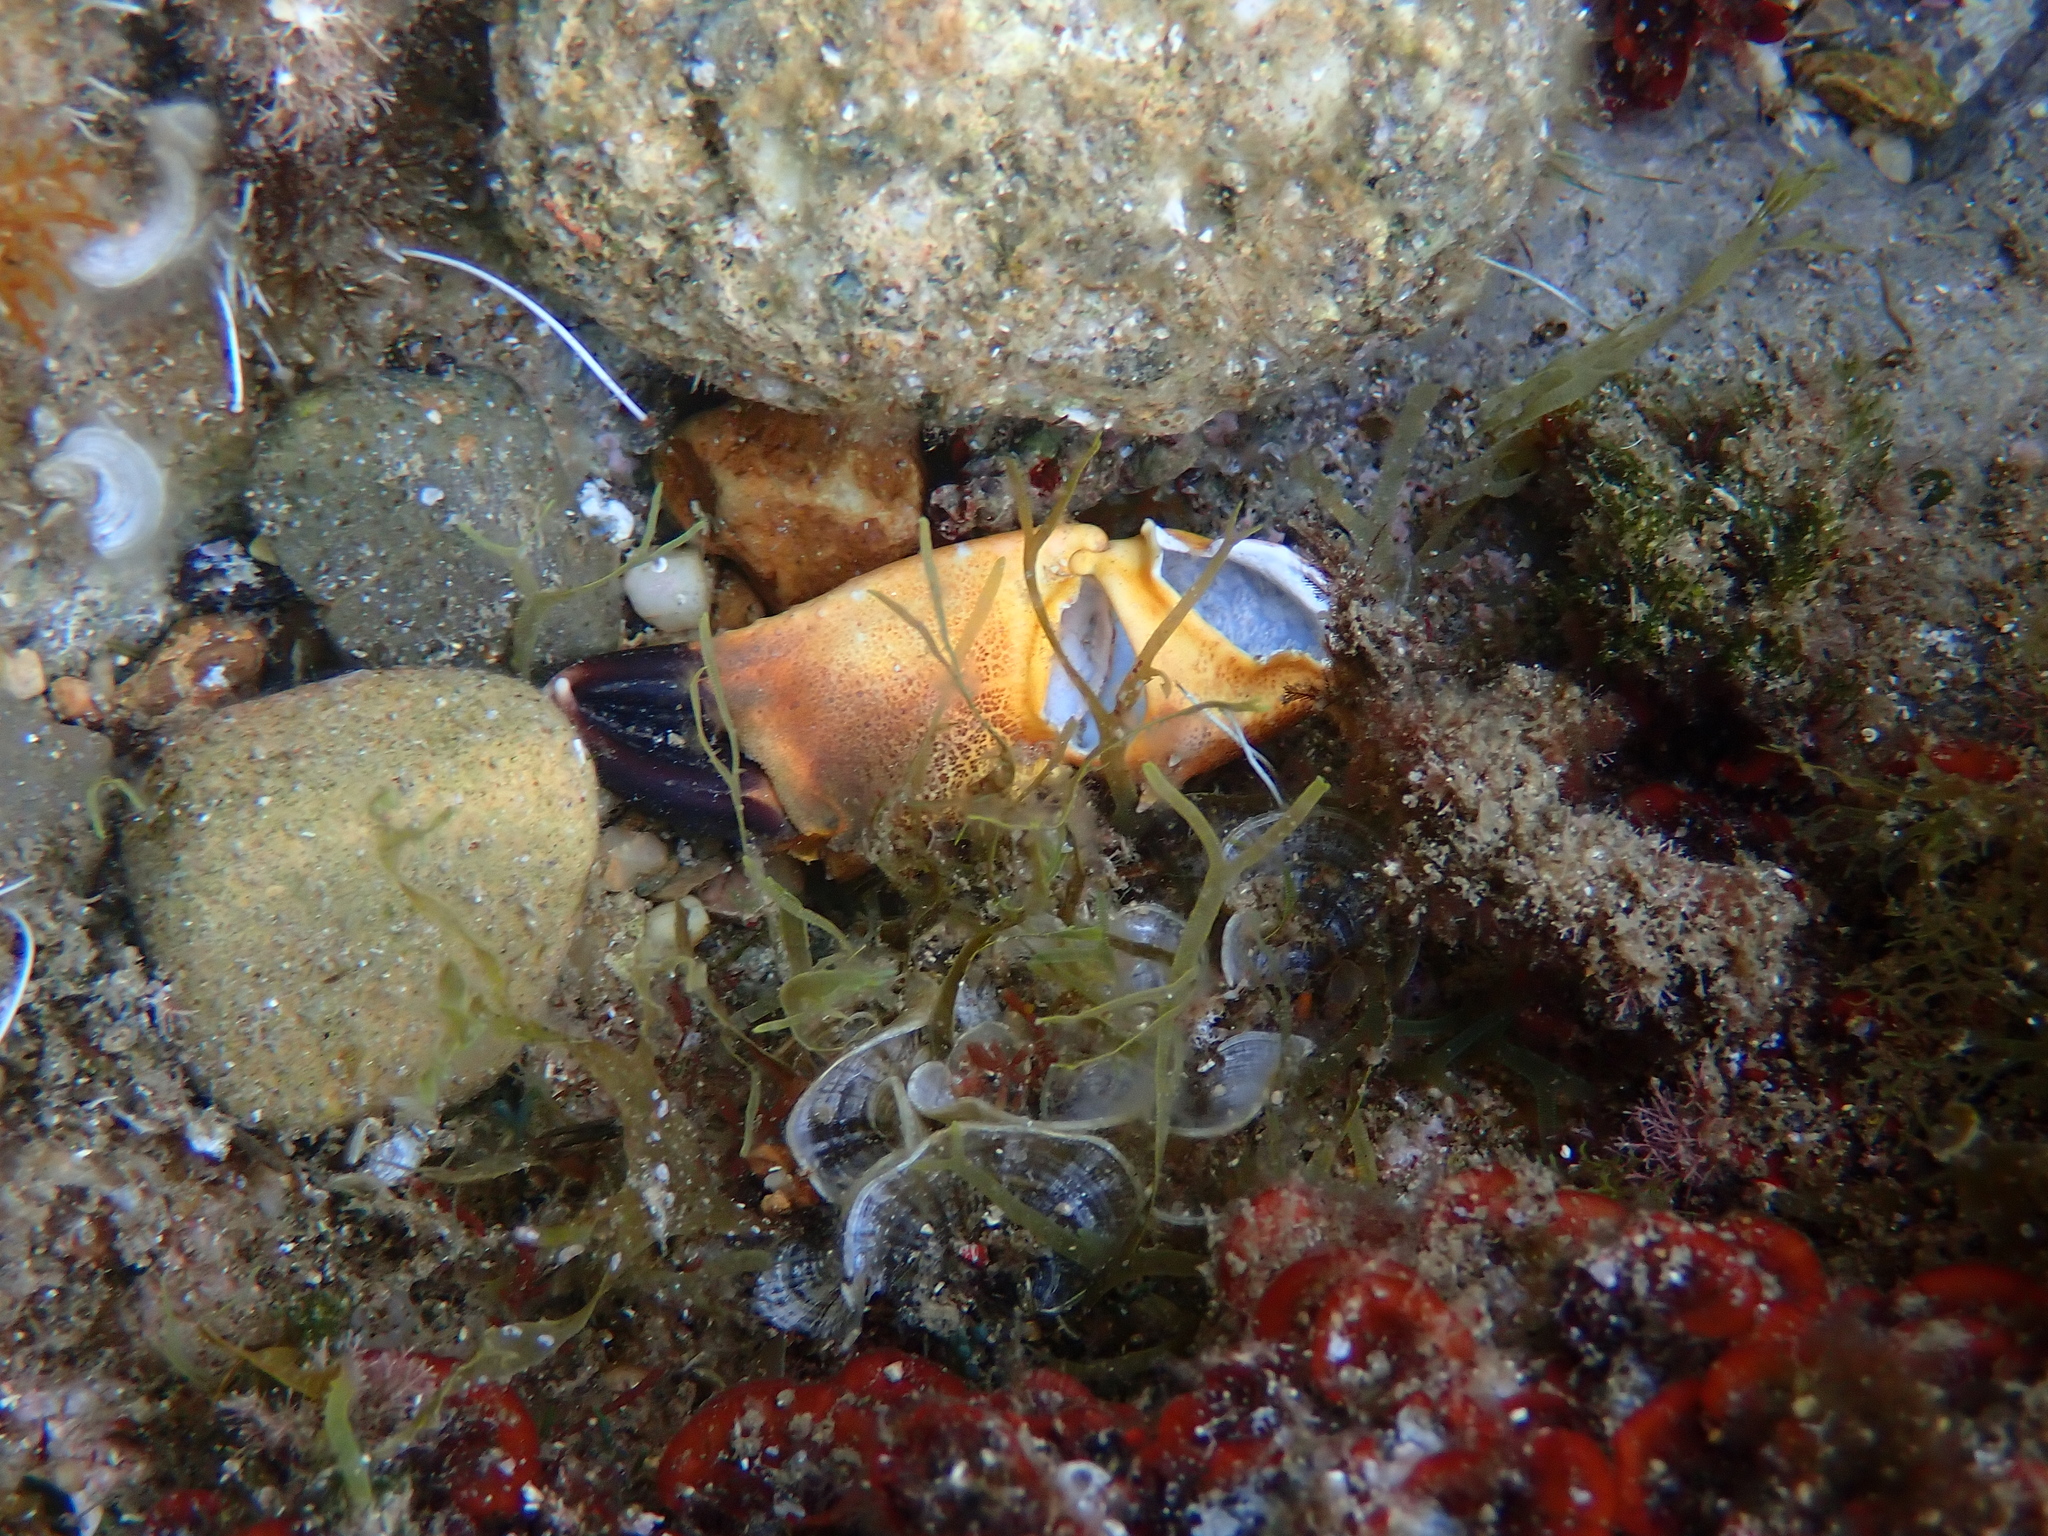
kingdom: Animalia
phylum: Arthropoda
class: Malacostraca
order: Decapoda
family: Eriphiidae
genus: Eriphia
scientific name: Eriphia verrucosa
